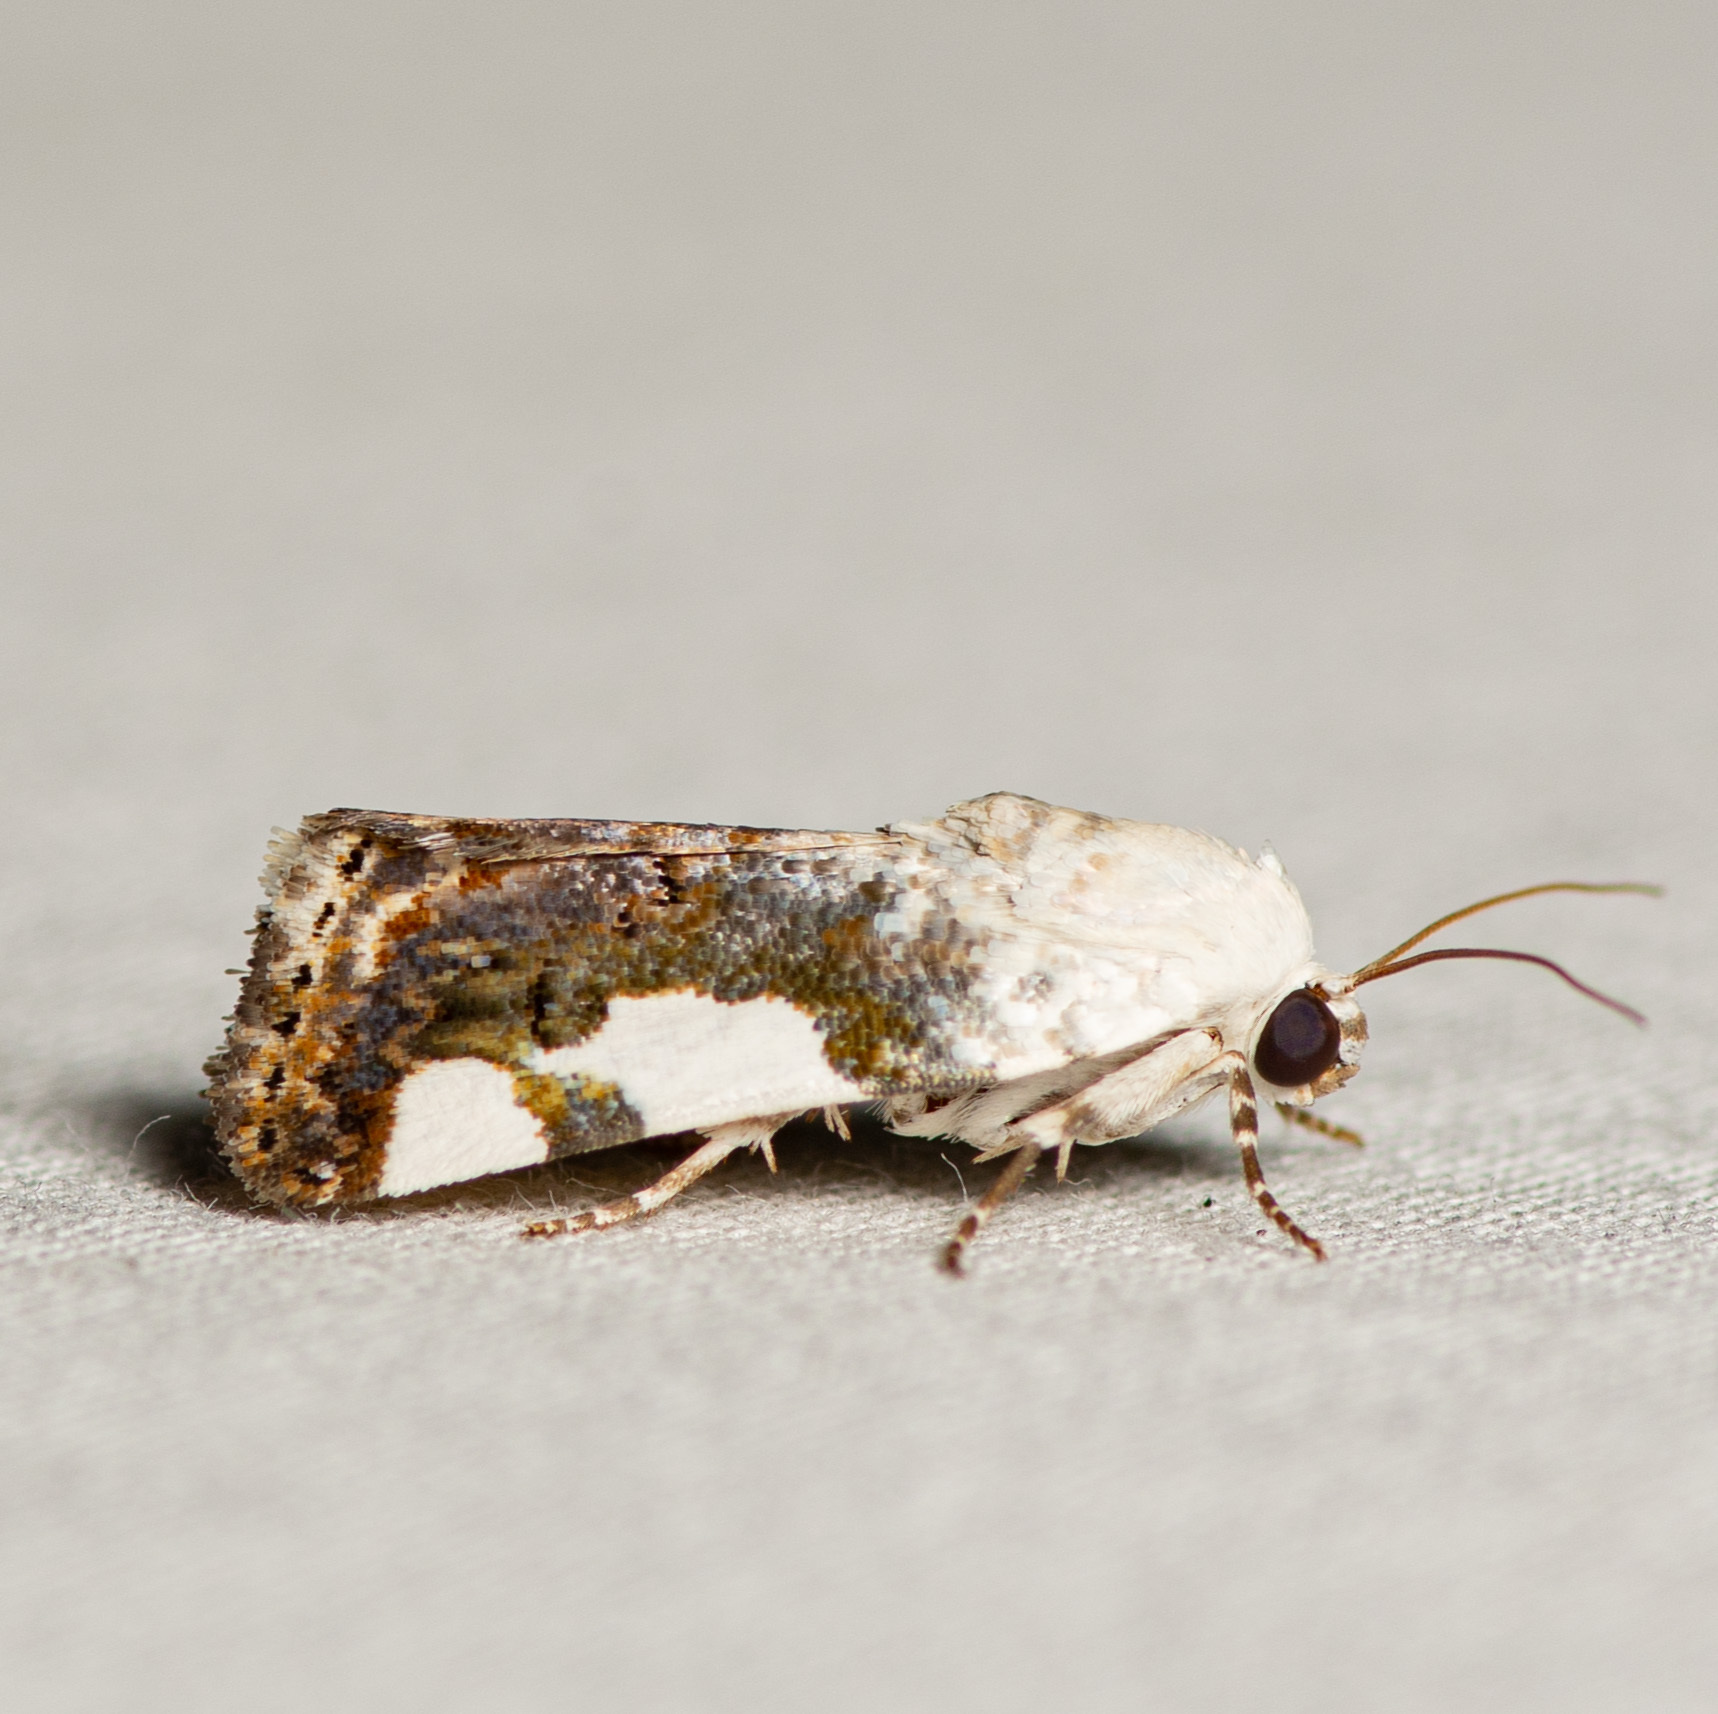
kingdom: Animalia
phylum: Arthropoda
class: Insecta
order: Lepidoptera
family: Noctuidae
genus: Acontia
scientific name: Acontia quadriplaga
